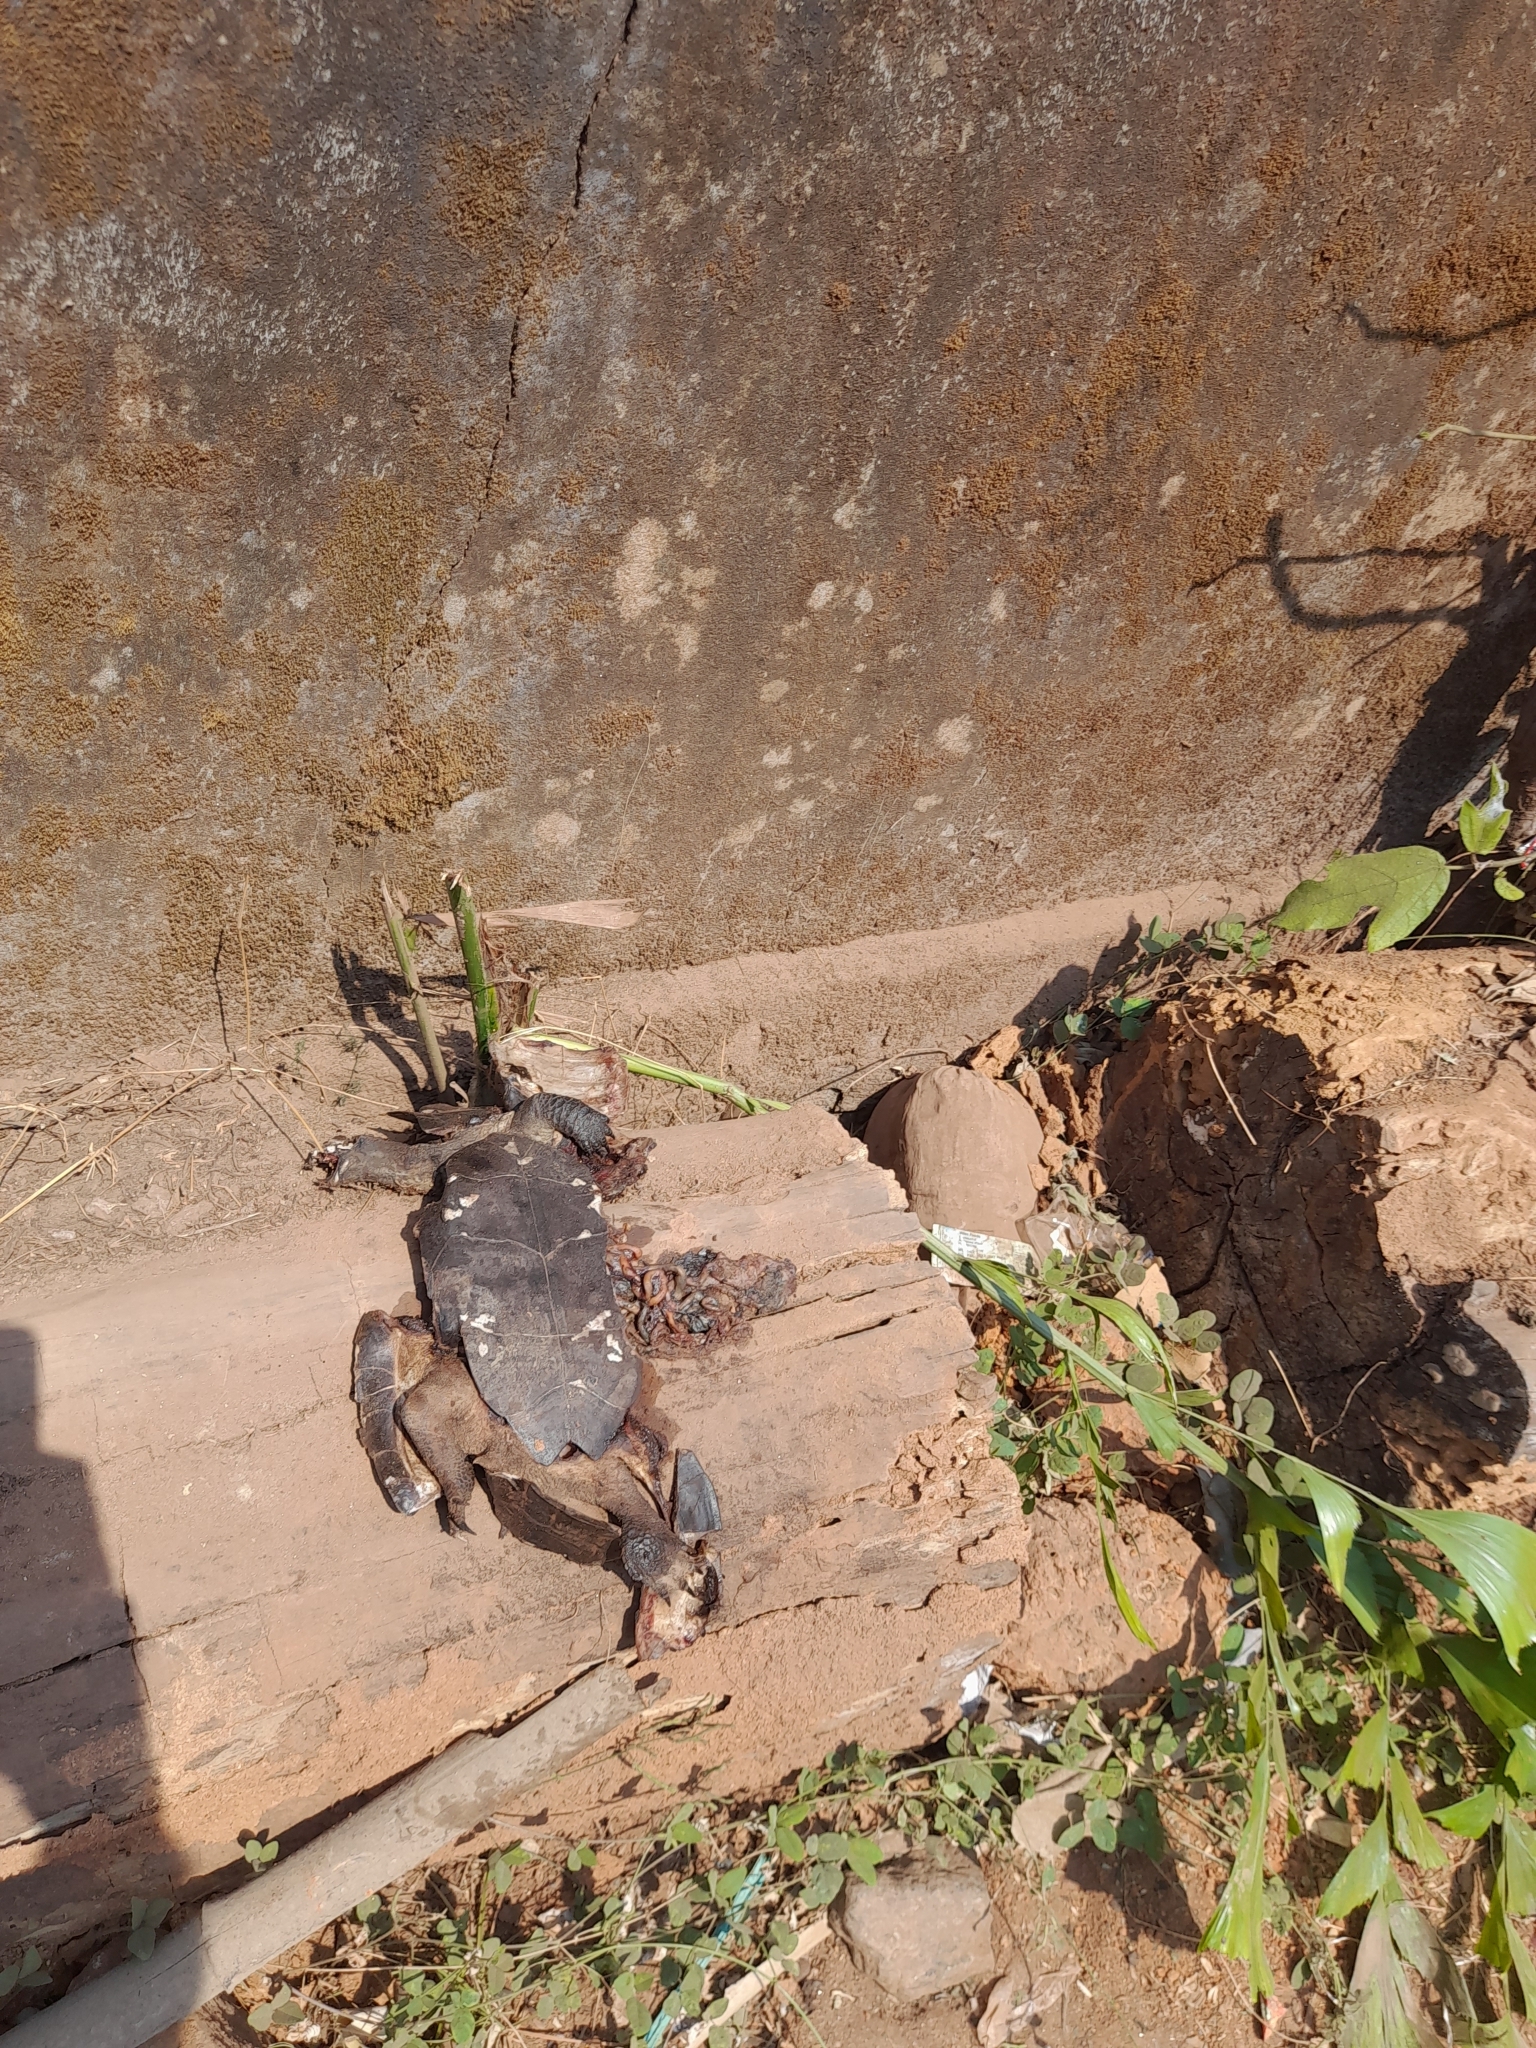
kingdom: Animalia
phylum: Chordata
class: Testudines
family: Geoemydidae
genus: Melanochelys
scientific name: Melanochelys trijuga
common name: Indian black turtle
